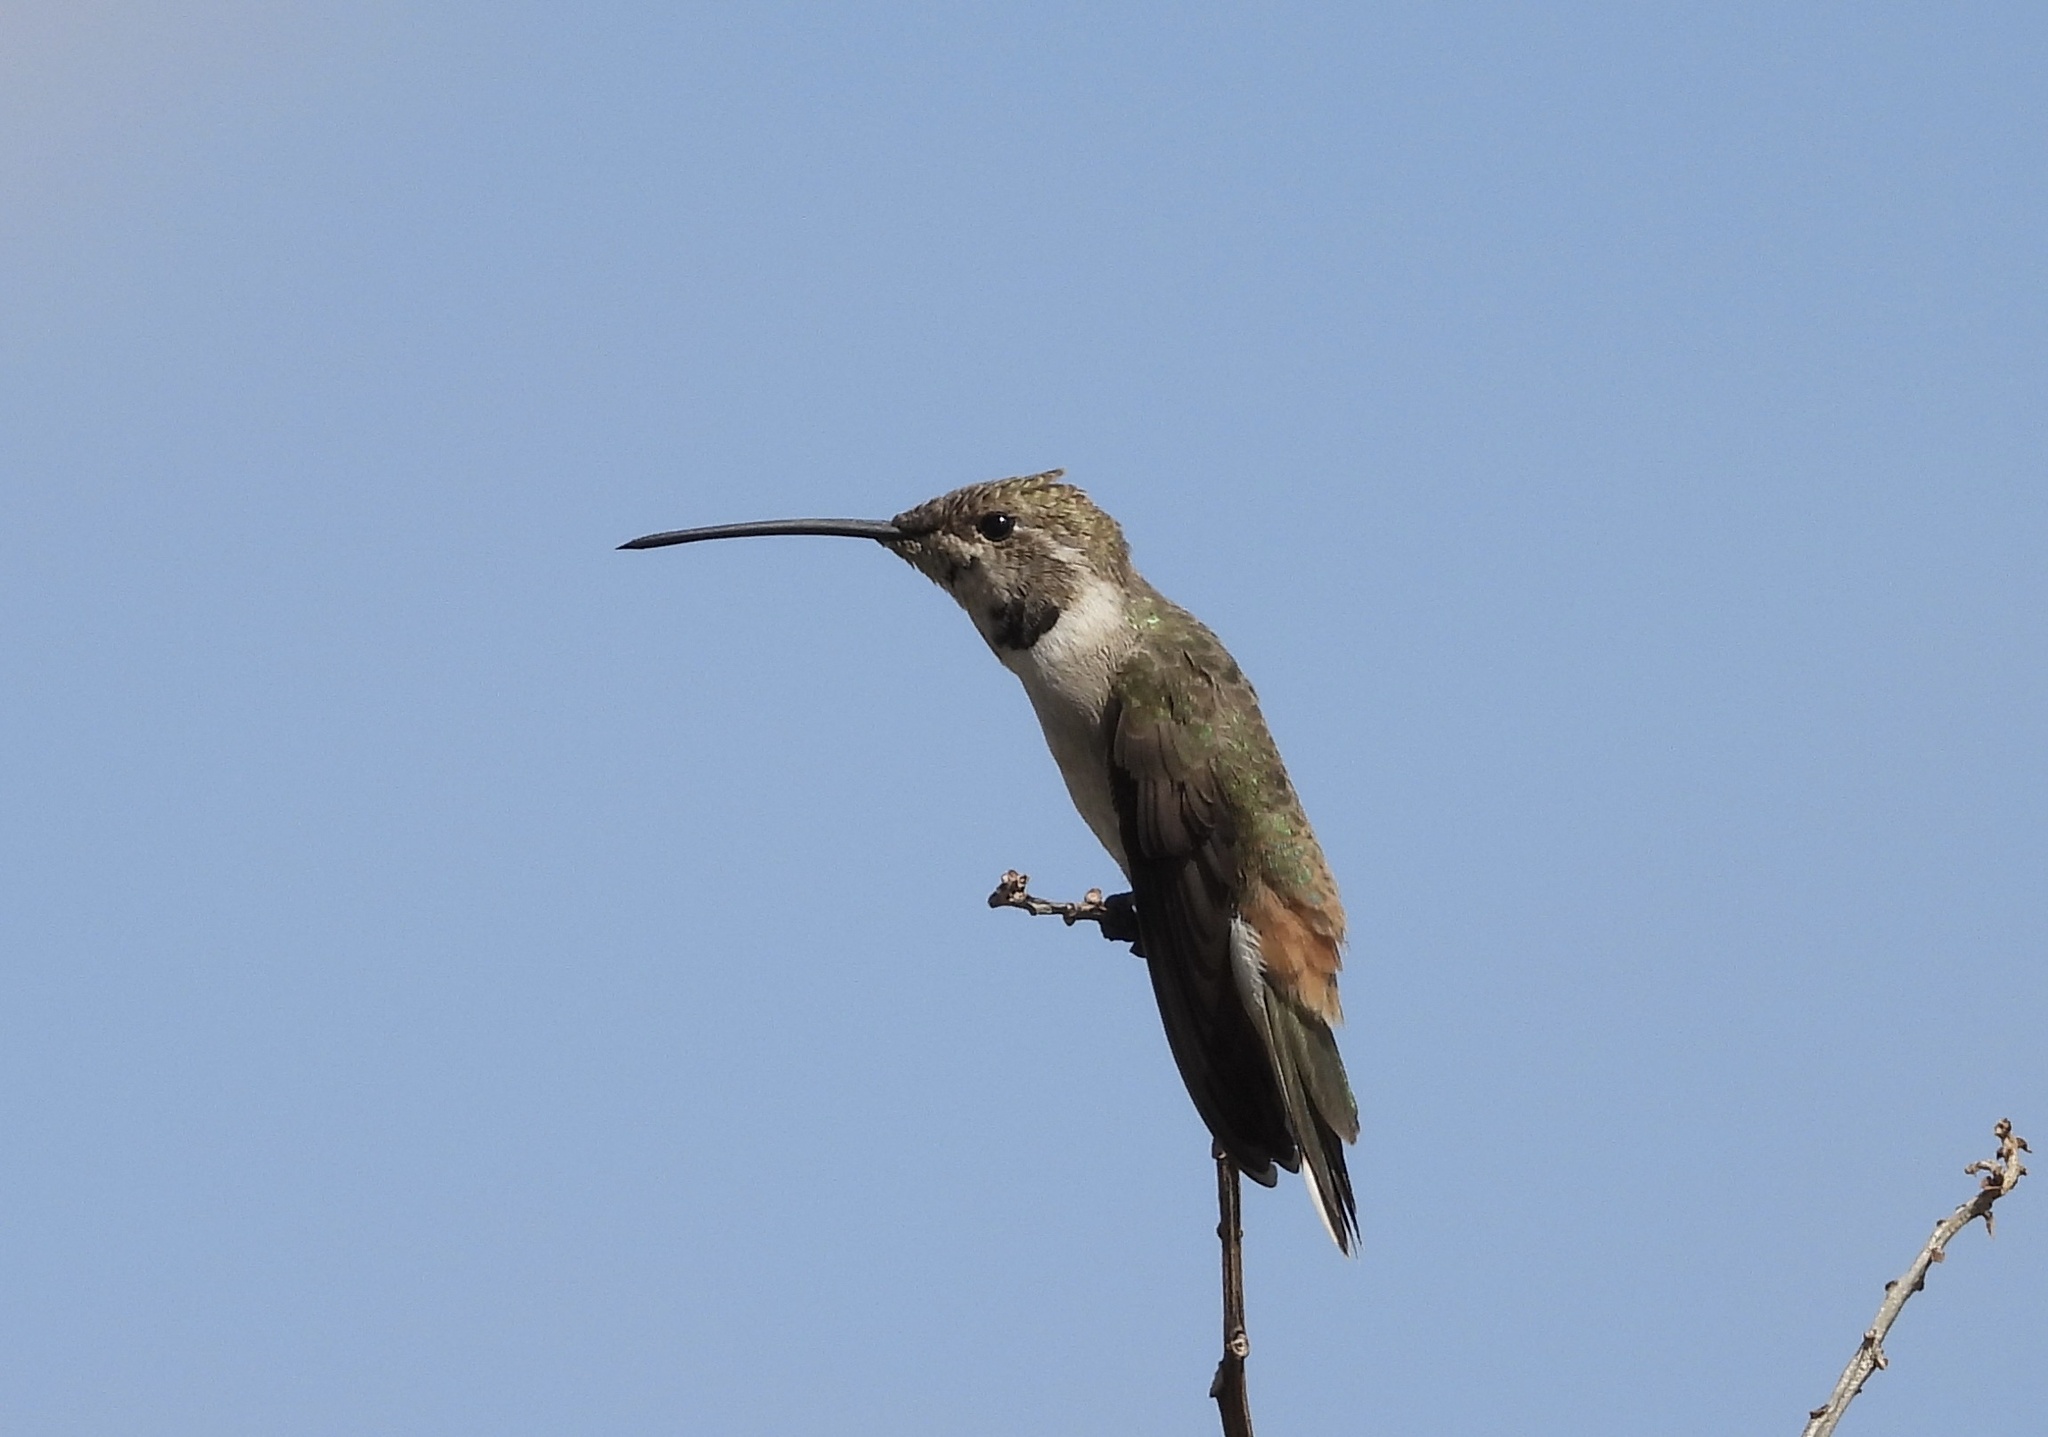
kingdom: Animalia
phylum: Chordata
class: Aves
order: Apodiformes
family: Trochilidae
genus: Rhodopis
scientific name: Rhodopis vesper
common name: Oasis hummingbird
